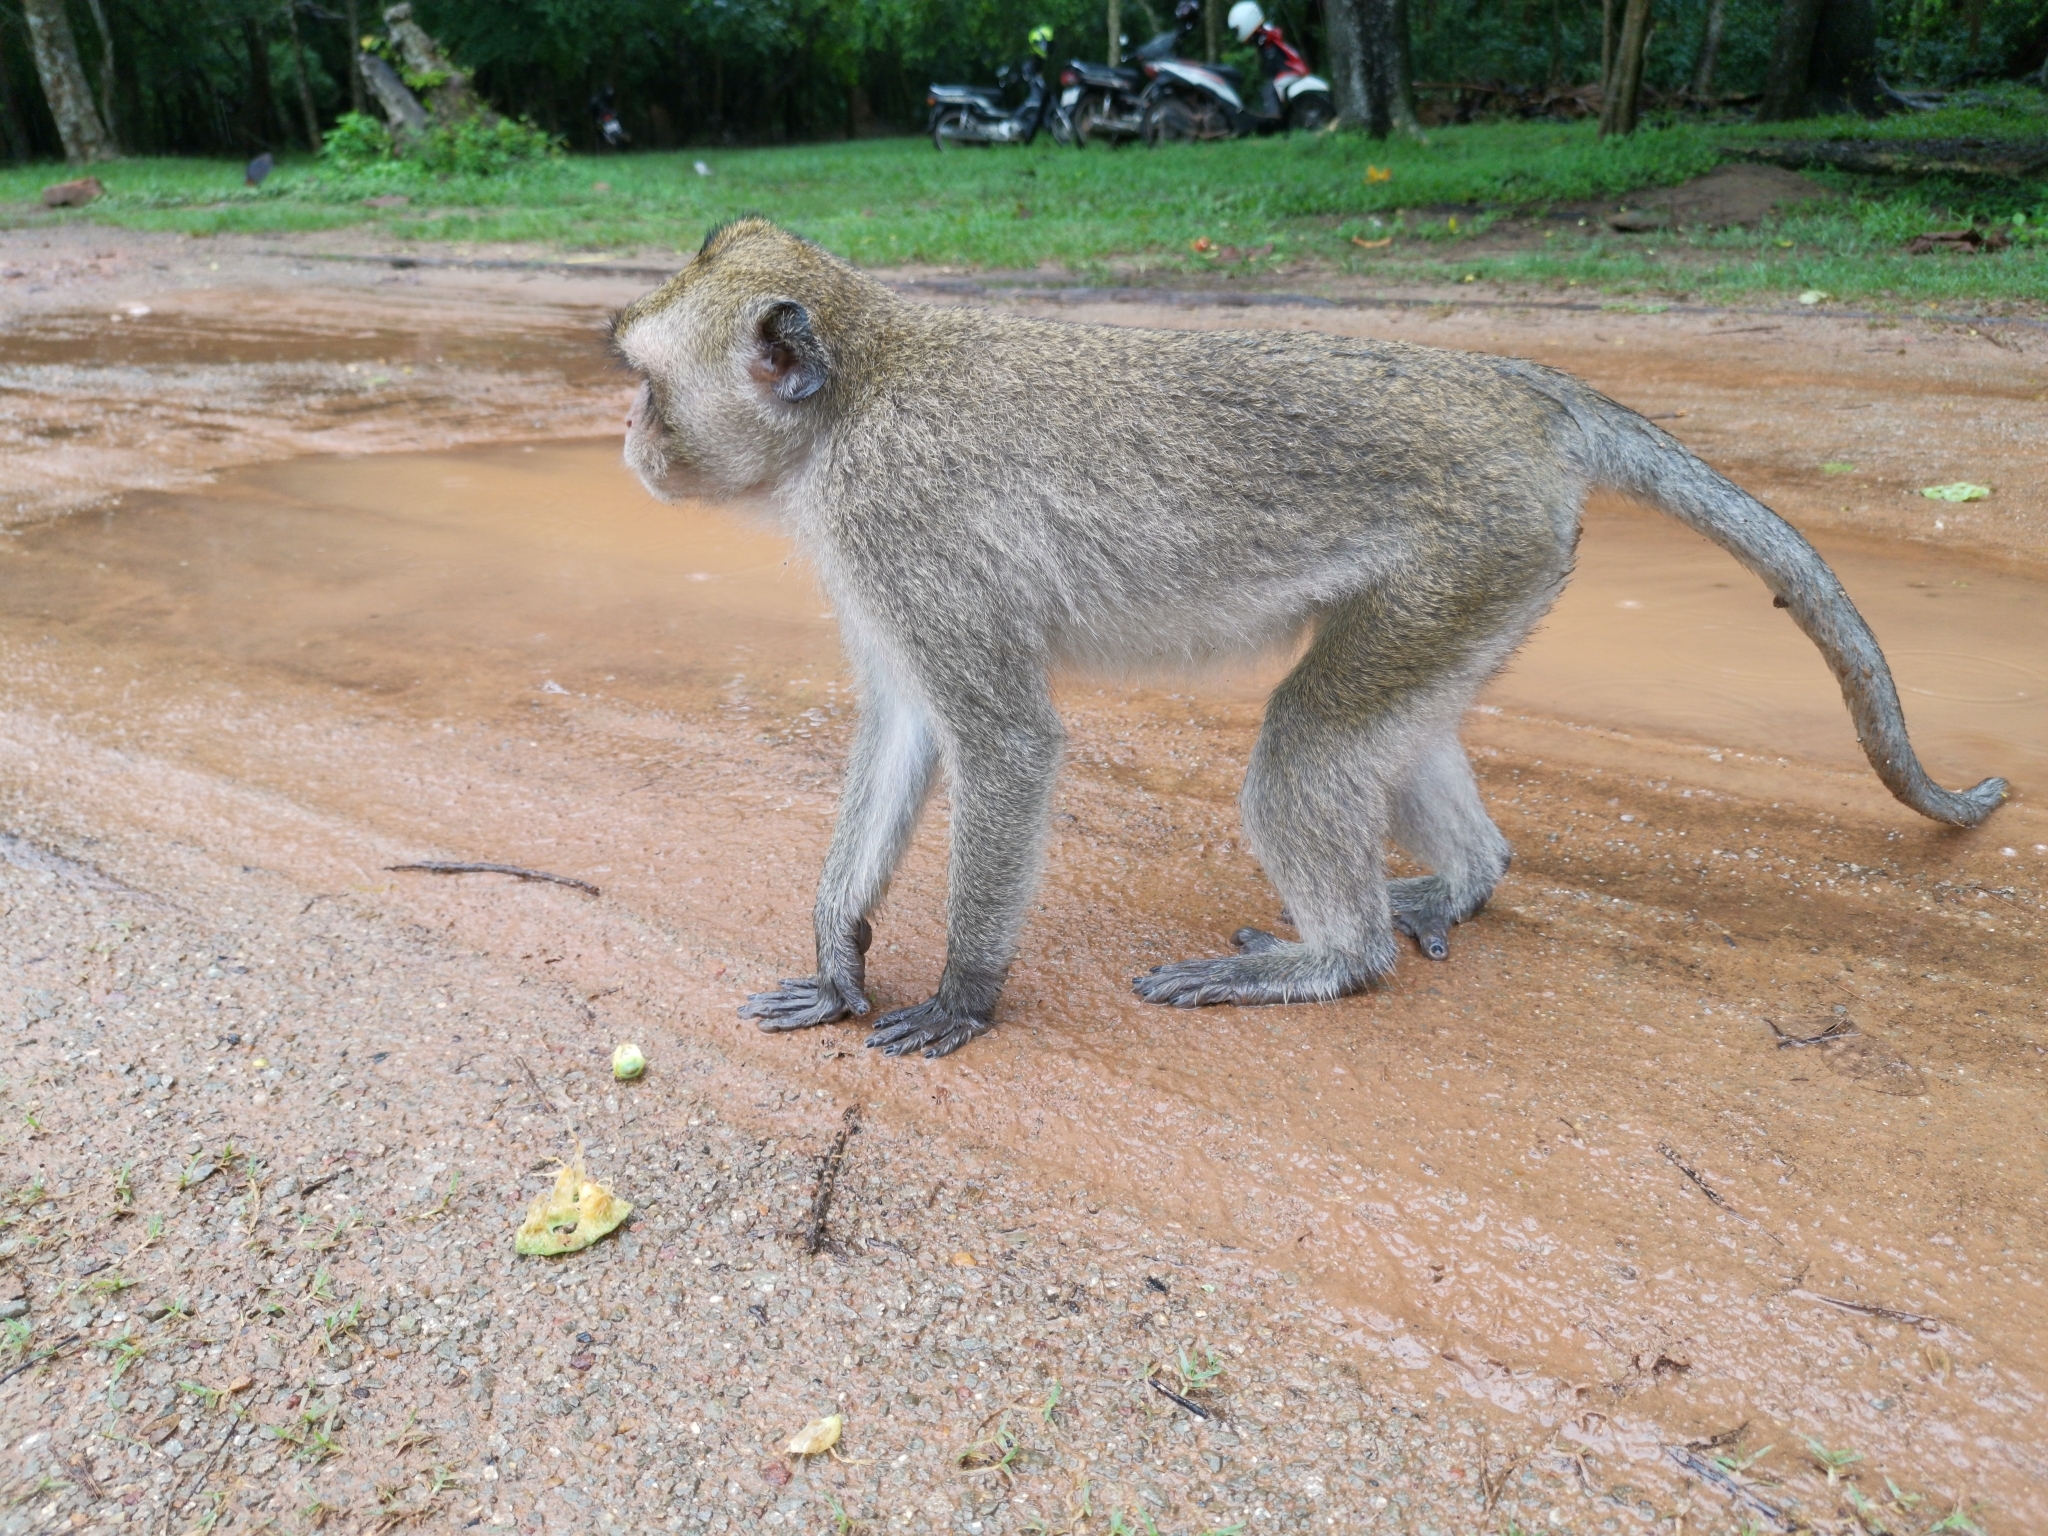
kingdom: Animalia
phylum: Chordata
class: Mammalia
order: Primates
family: Cercopithecidae
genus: Macaca
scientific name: Macaca fascicularis
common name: Crab-eating macaque
